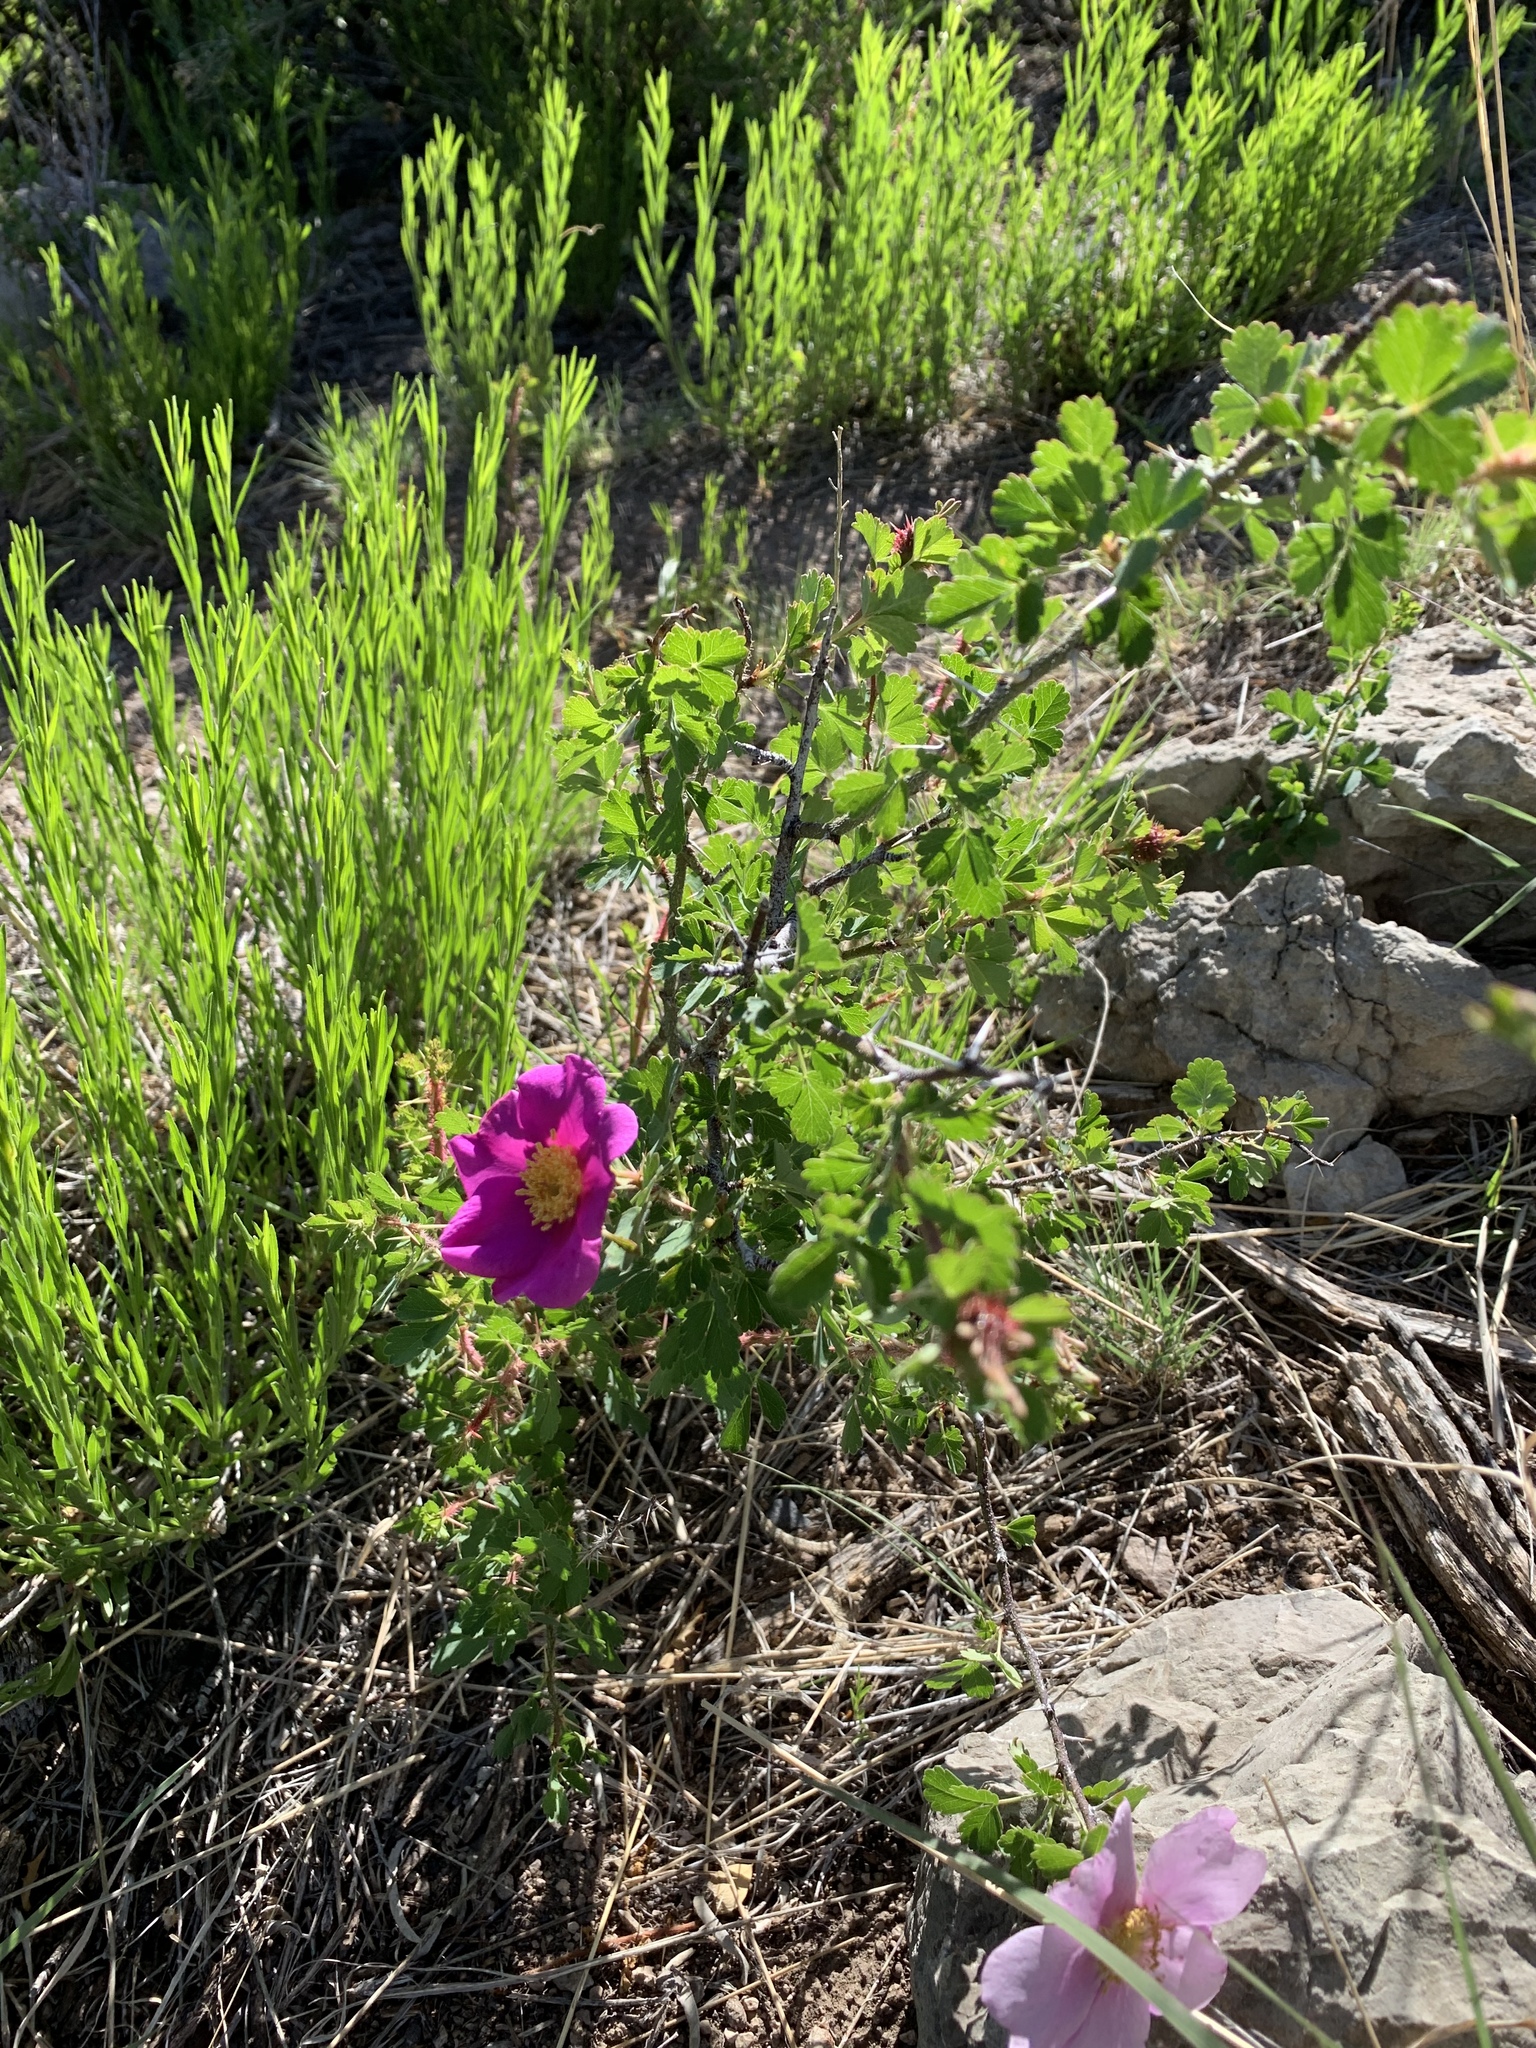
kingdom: Plantae
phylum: Tracheophyta
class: Magnoliopsida
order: Rosales
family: Rosaceae
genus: Rosa
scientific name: Rosa stellata
